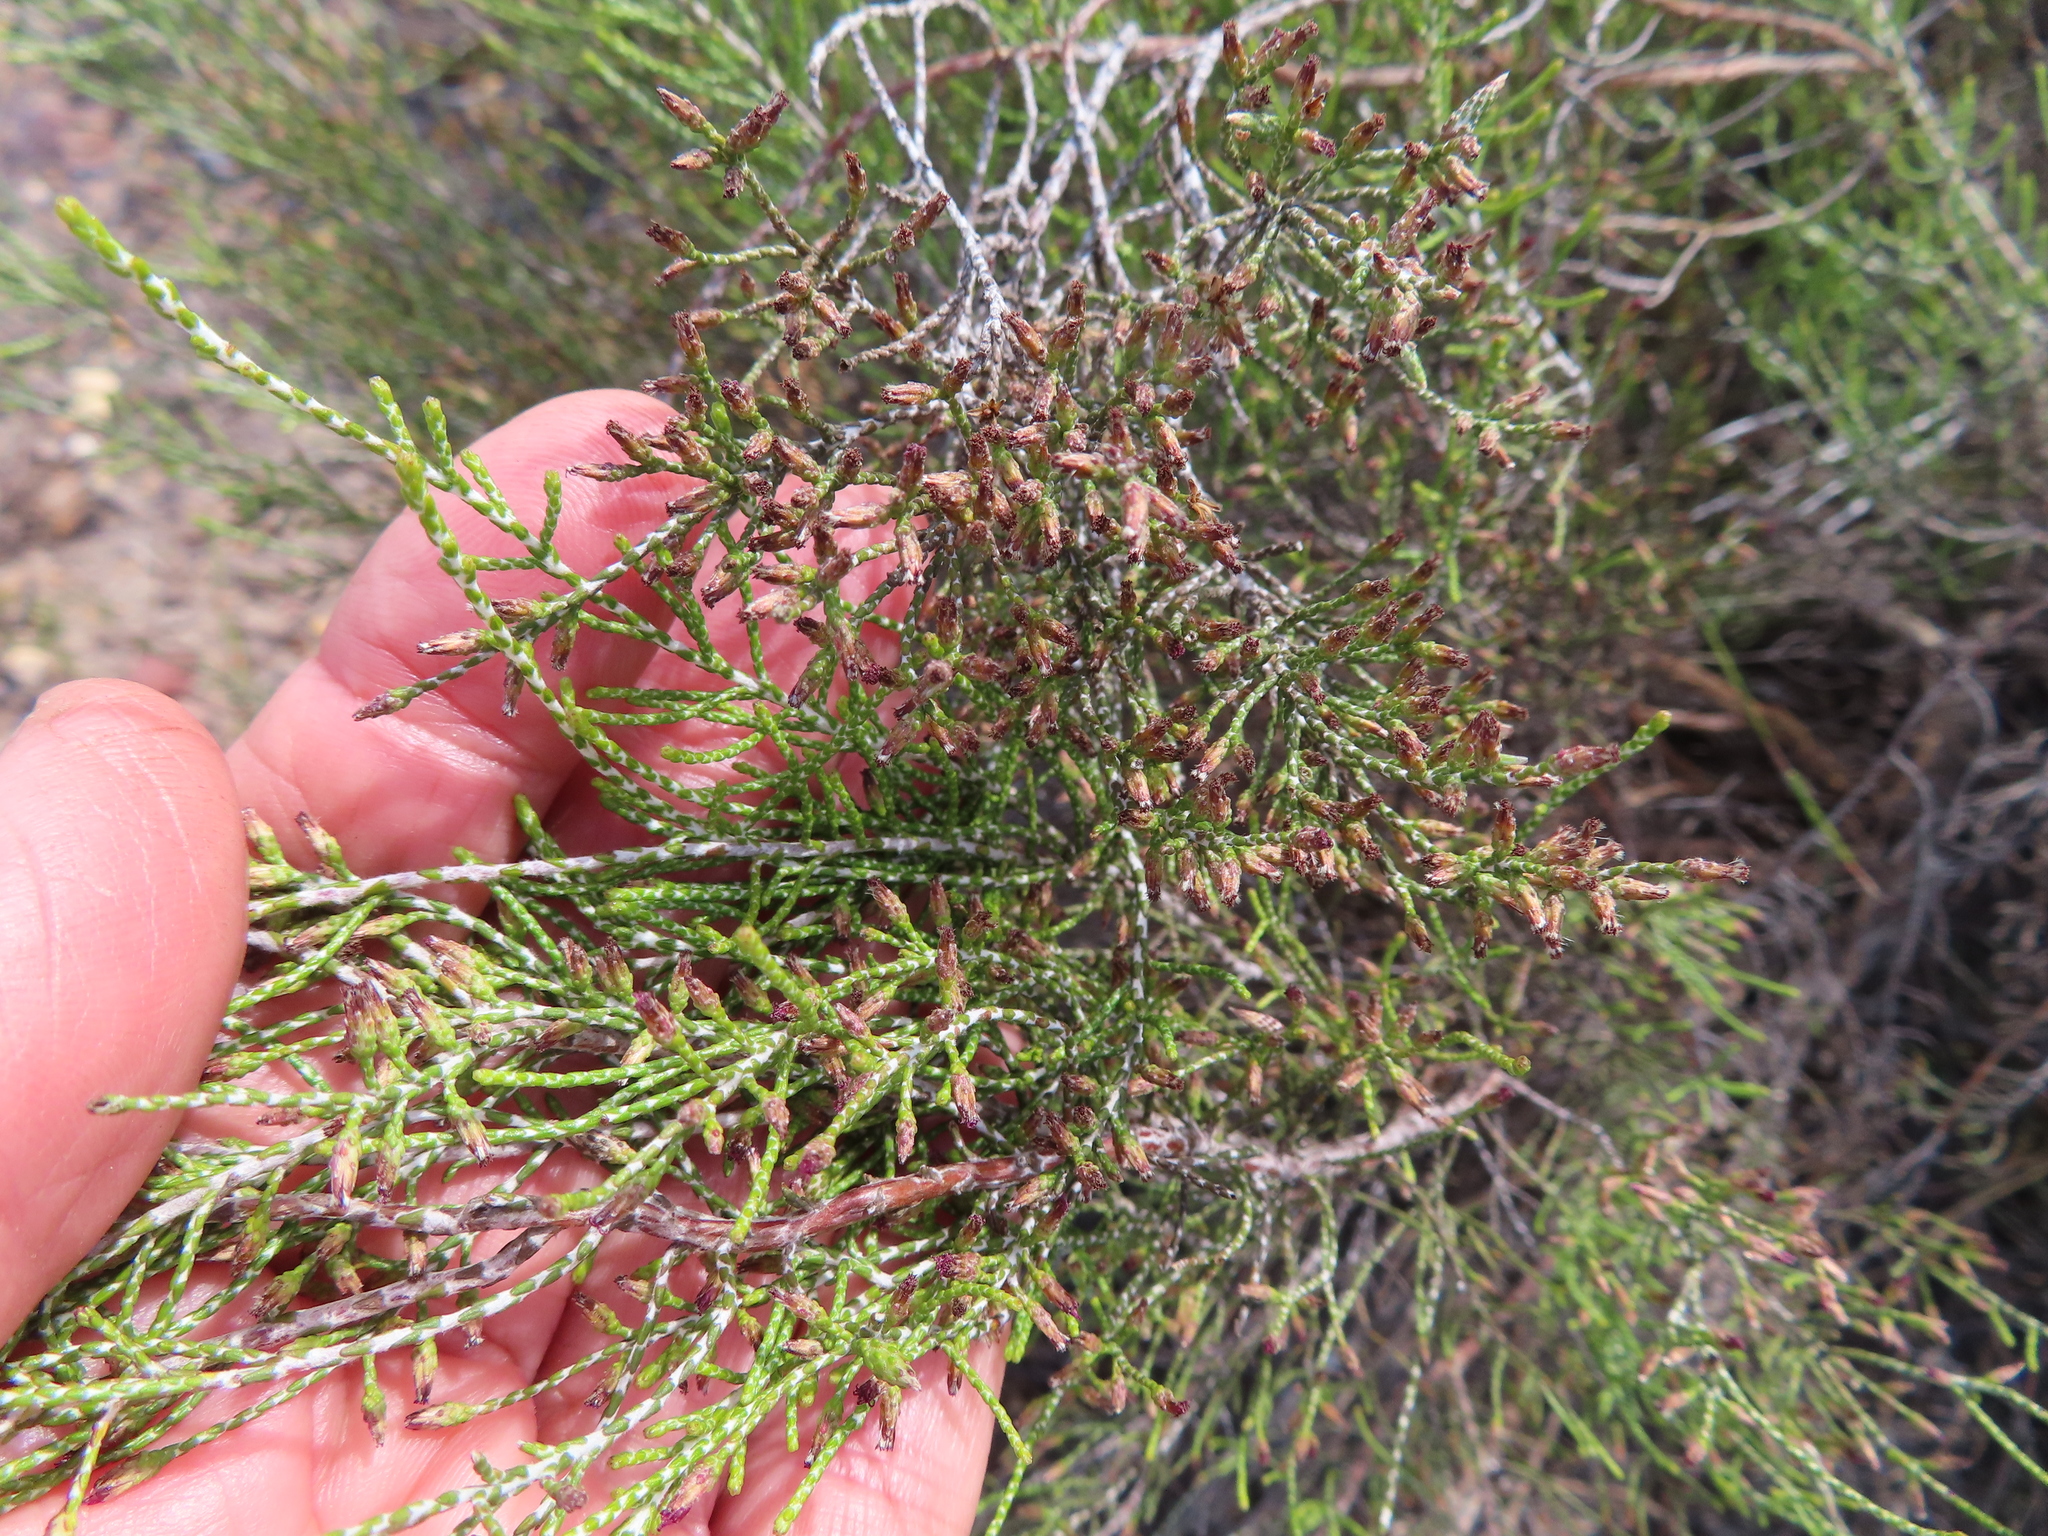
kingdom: Plantae
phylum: Tracheophyta
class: Magnoliopsida
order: Asterales
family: Asteraceae
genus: Dicerothamnus
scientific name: Dicerothamnus rhinocerotis
